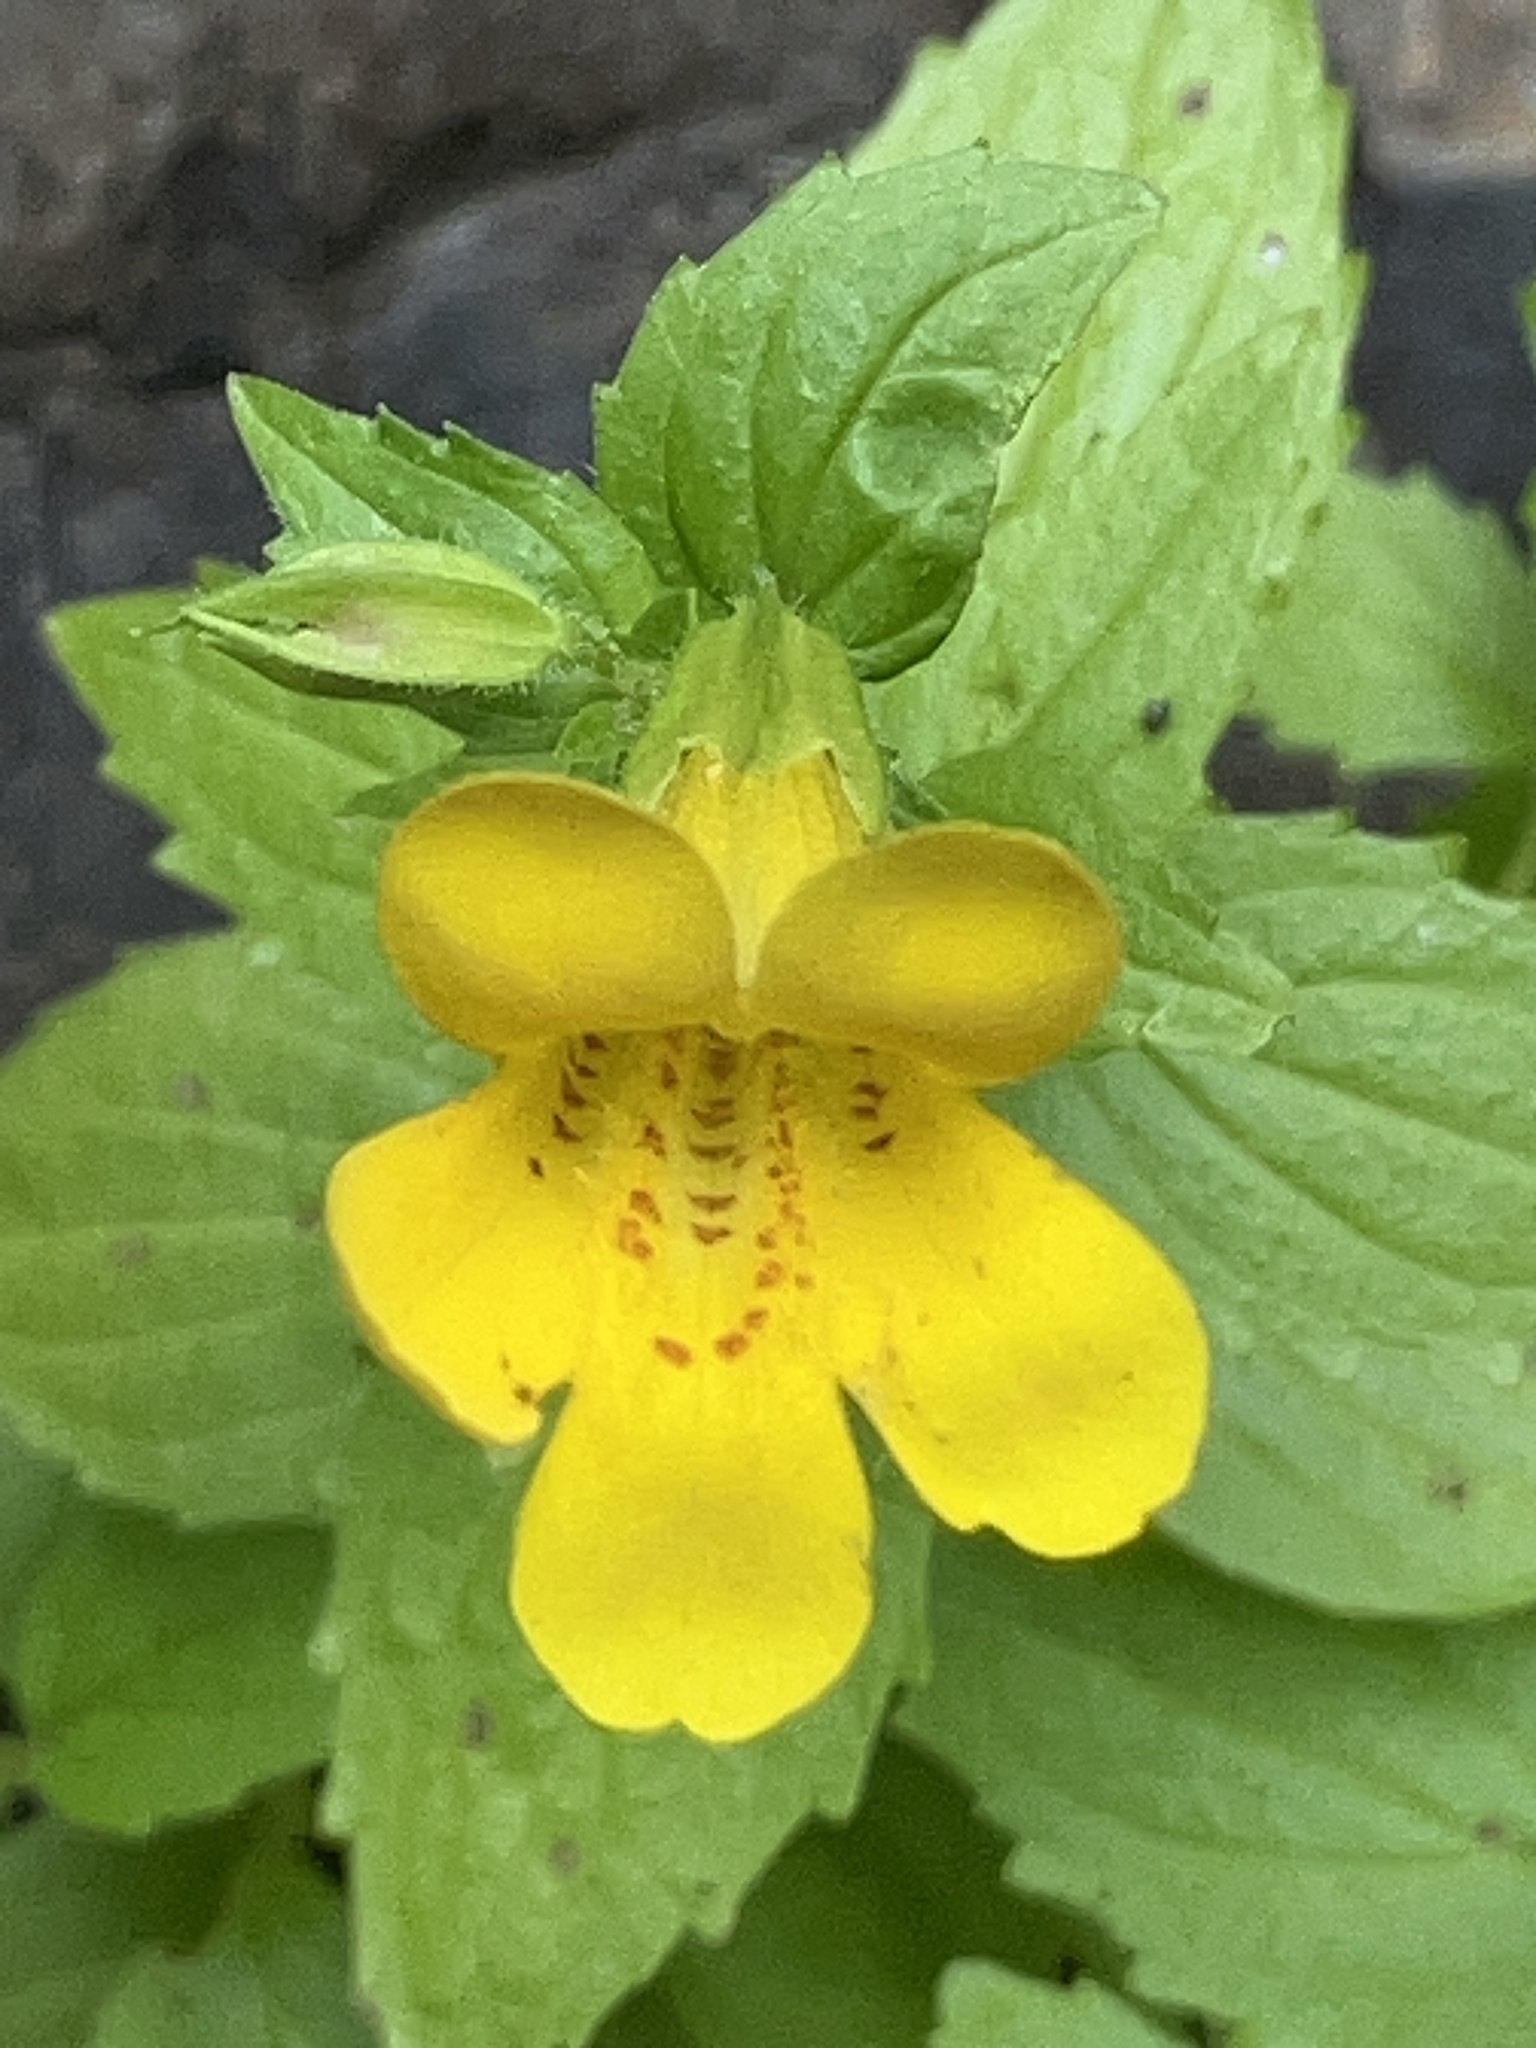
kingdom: Plantae
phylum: Tracheophyta
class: Magnoliopsida
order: Lamiales
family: Phrymaceae
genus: Erythranthe
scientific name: Erythranthe dentata
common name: Coastal monkeyflower
